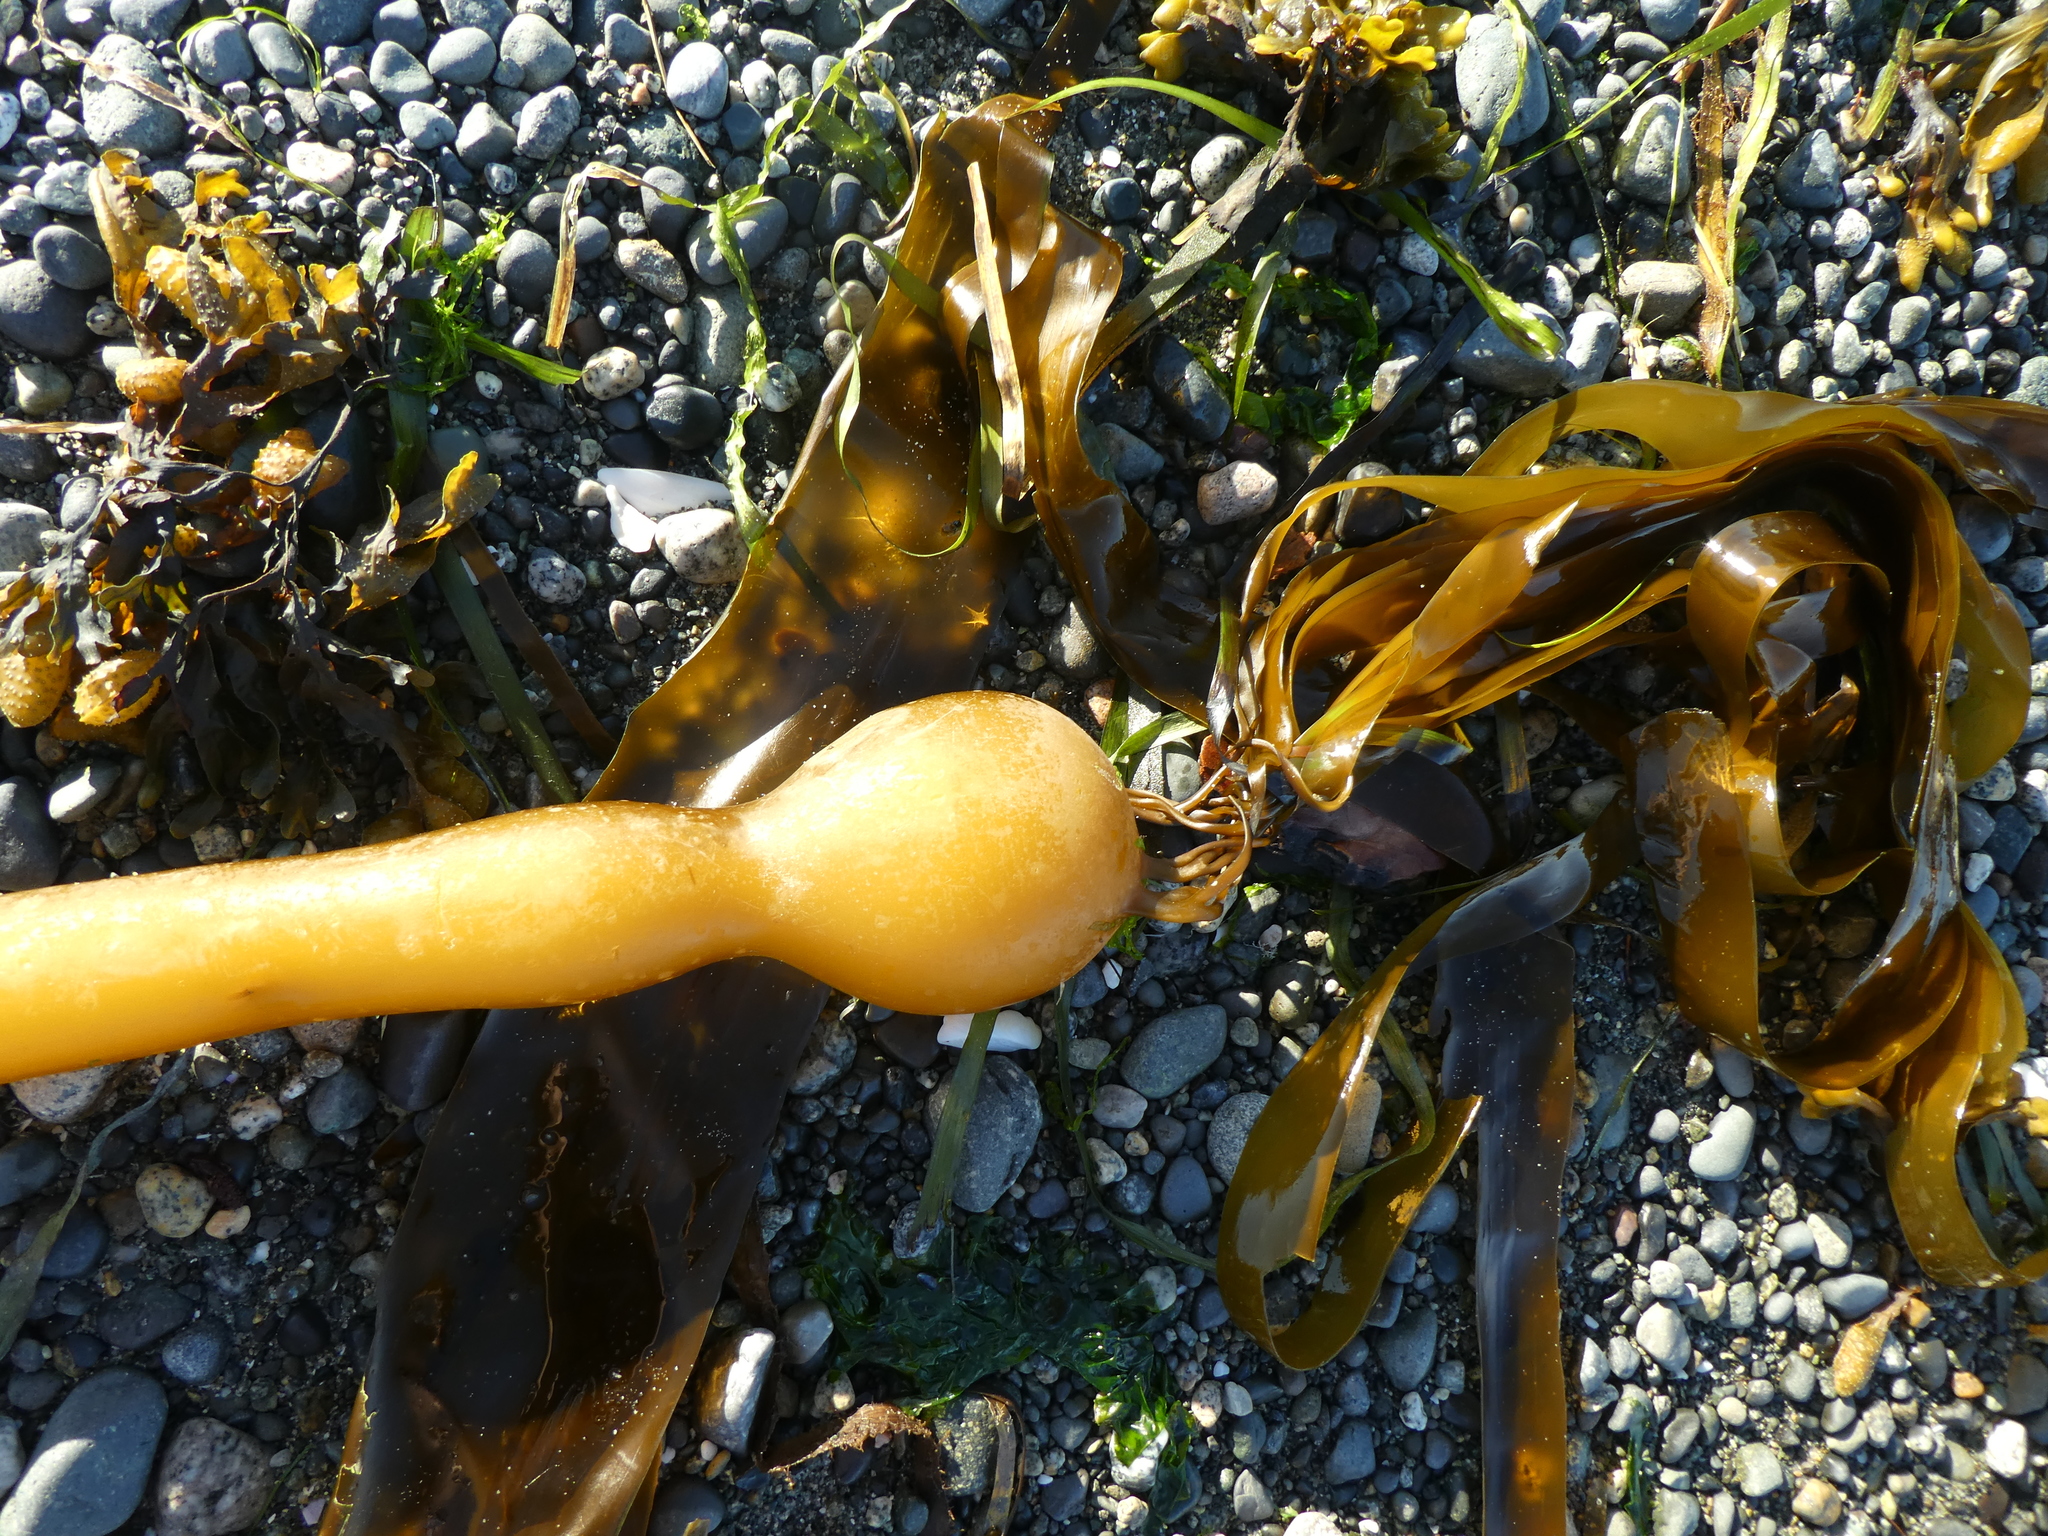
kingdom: Chromista
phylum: Ochrophyta
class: Phaeophyceae
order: Laminariales
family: Laminariaceae
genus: Nereocystis
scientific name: Nereocystis luetkeana
